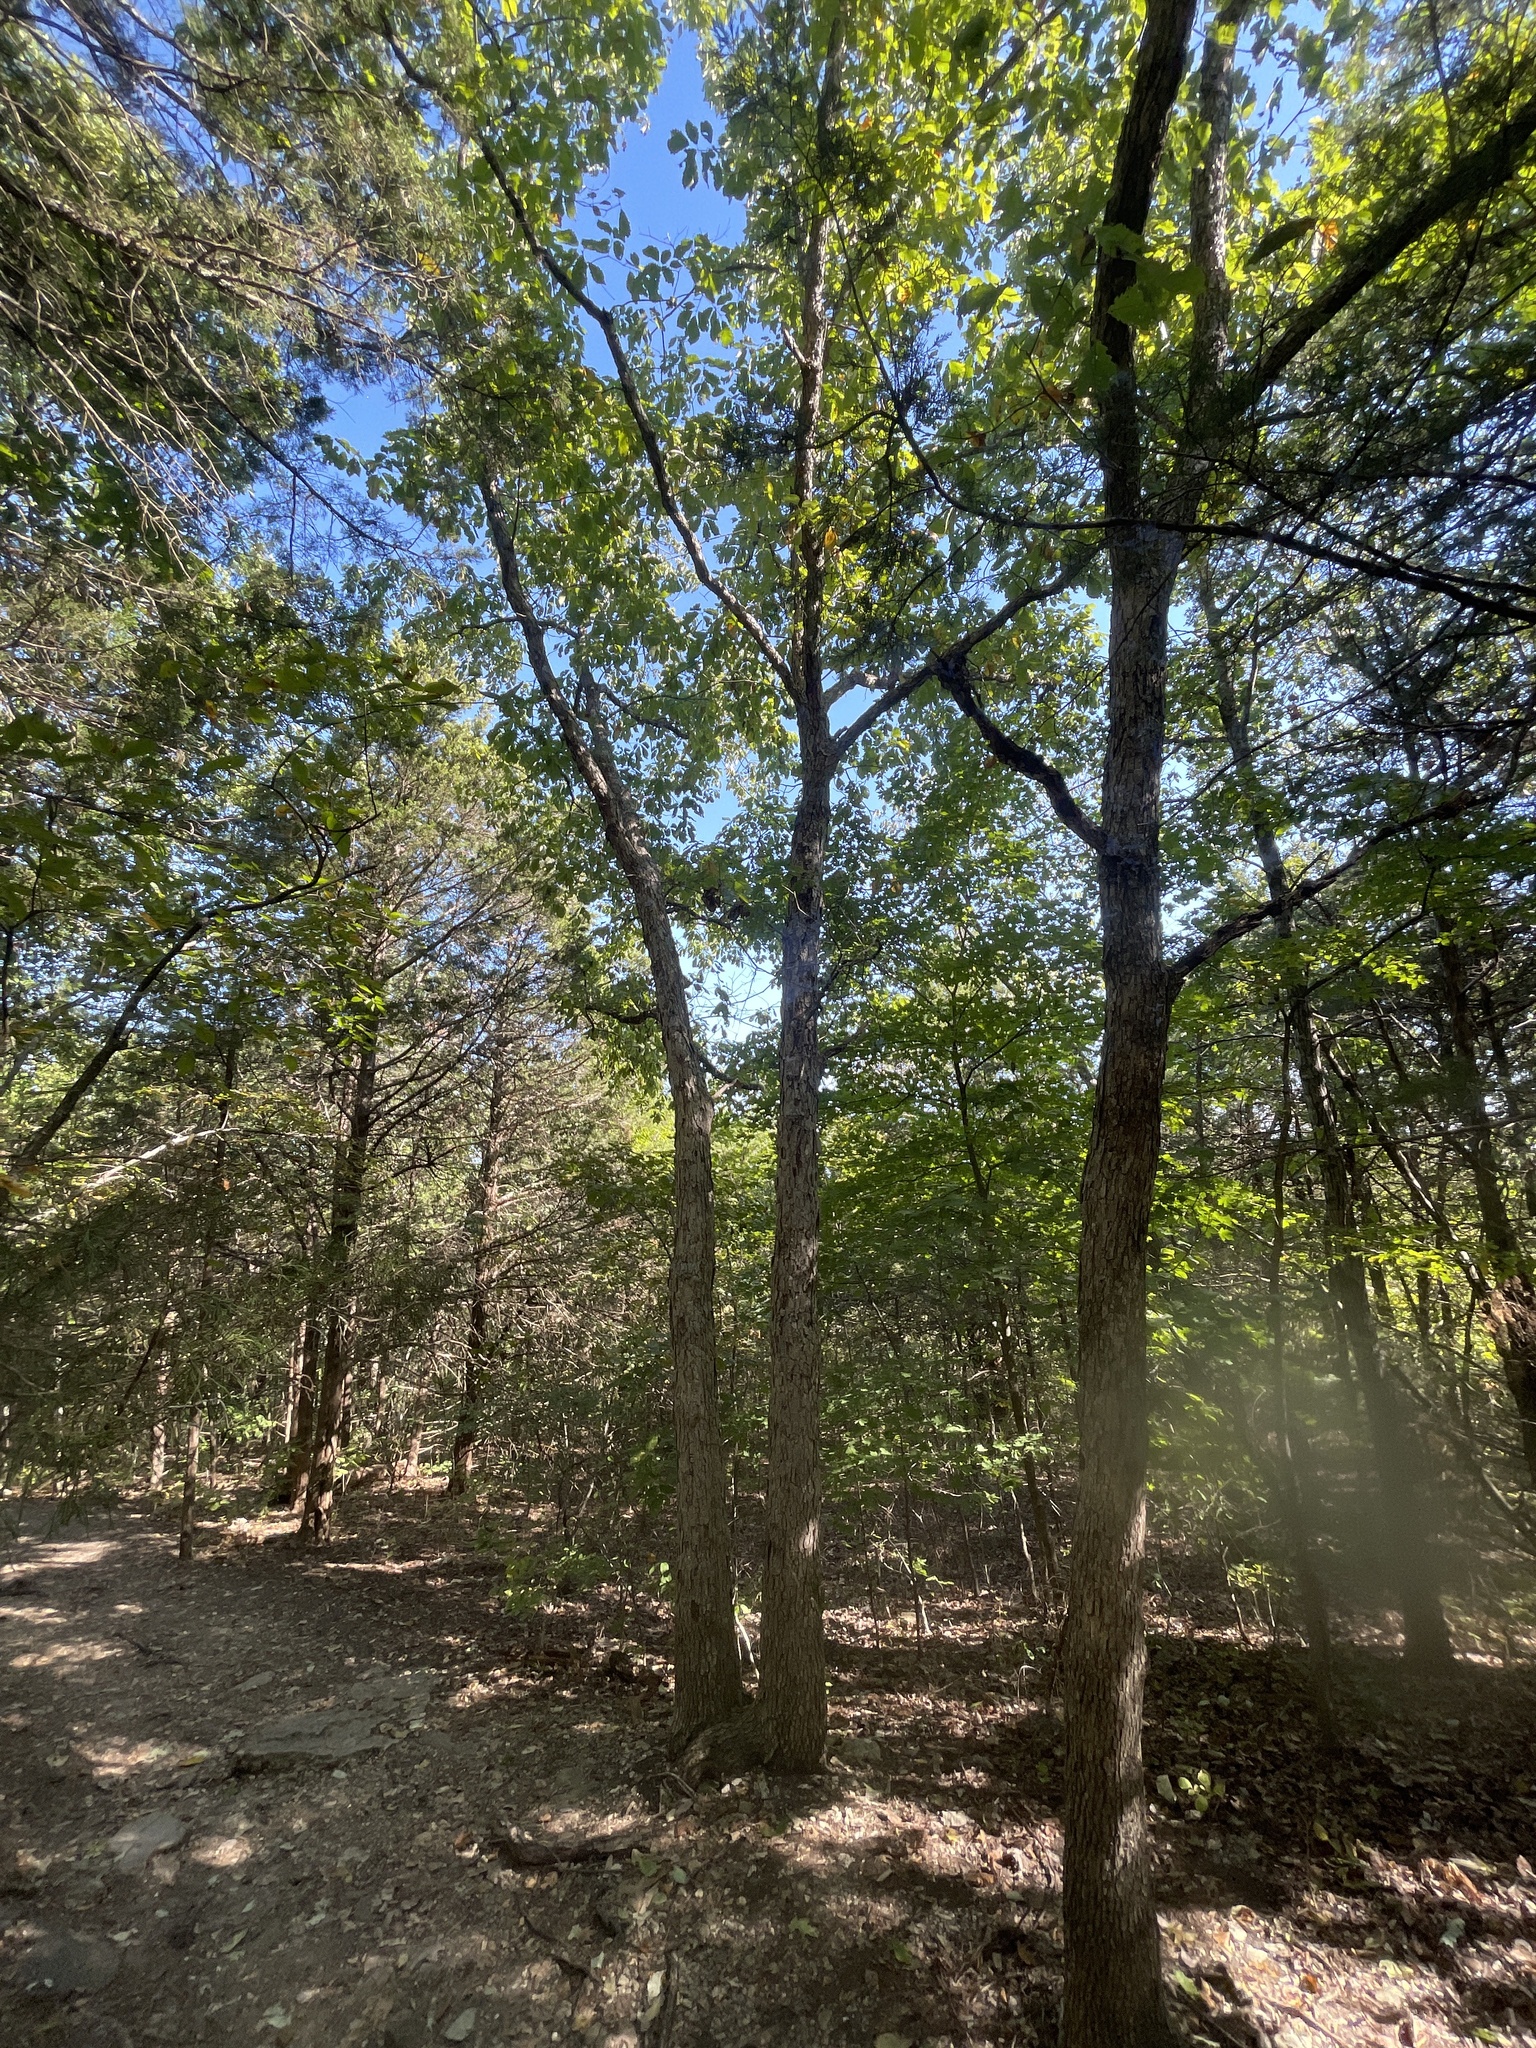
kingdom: Plantae
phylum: Tracheophyta
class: Magnoliopsida
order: Fagales
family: Fagaceae
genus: Quercus
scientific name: Quercus muehlenbergii
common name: Chinkapin oak
